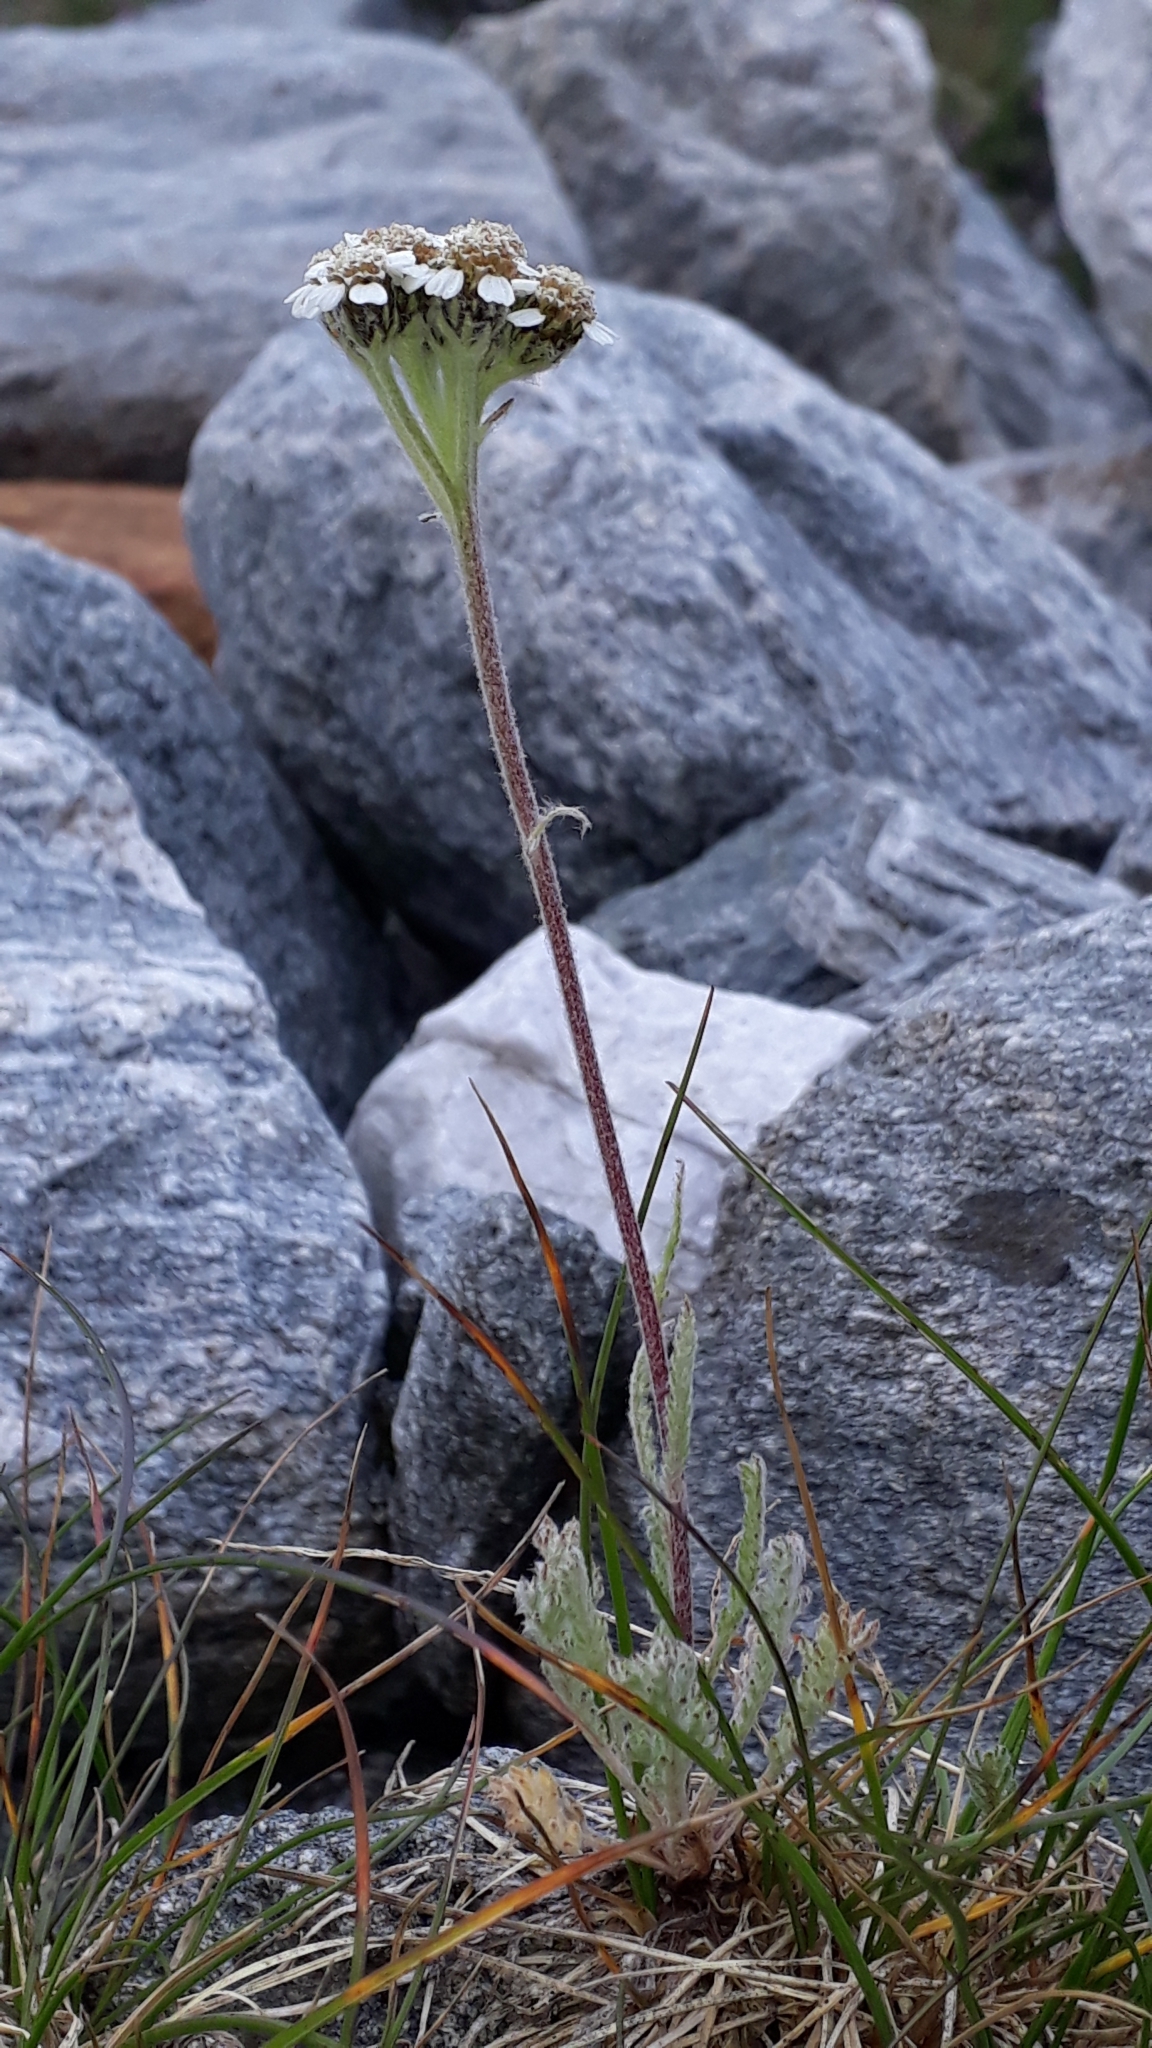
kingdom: Plantae
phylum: Tracheophyta
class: Magnoliopsida
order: Asterales
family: Asteraceae
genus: Achillea
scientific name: Achillea nana
